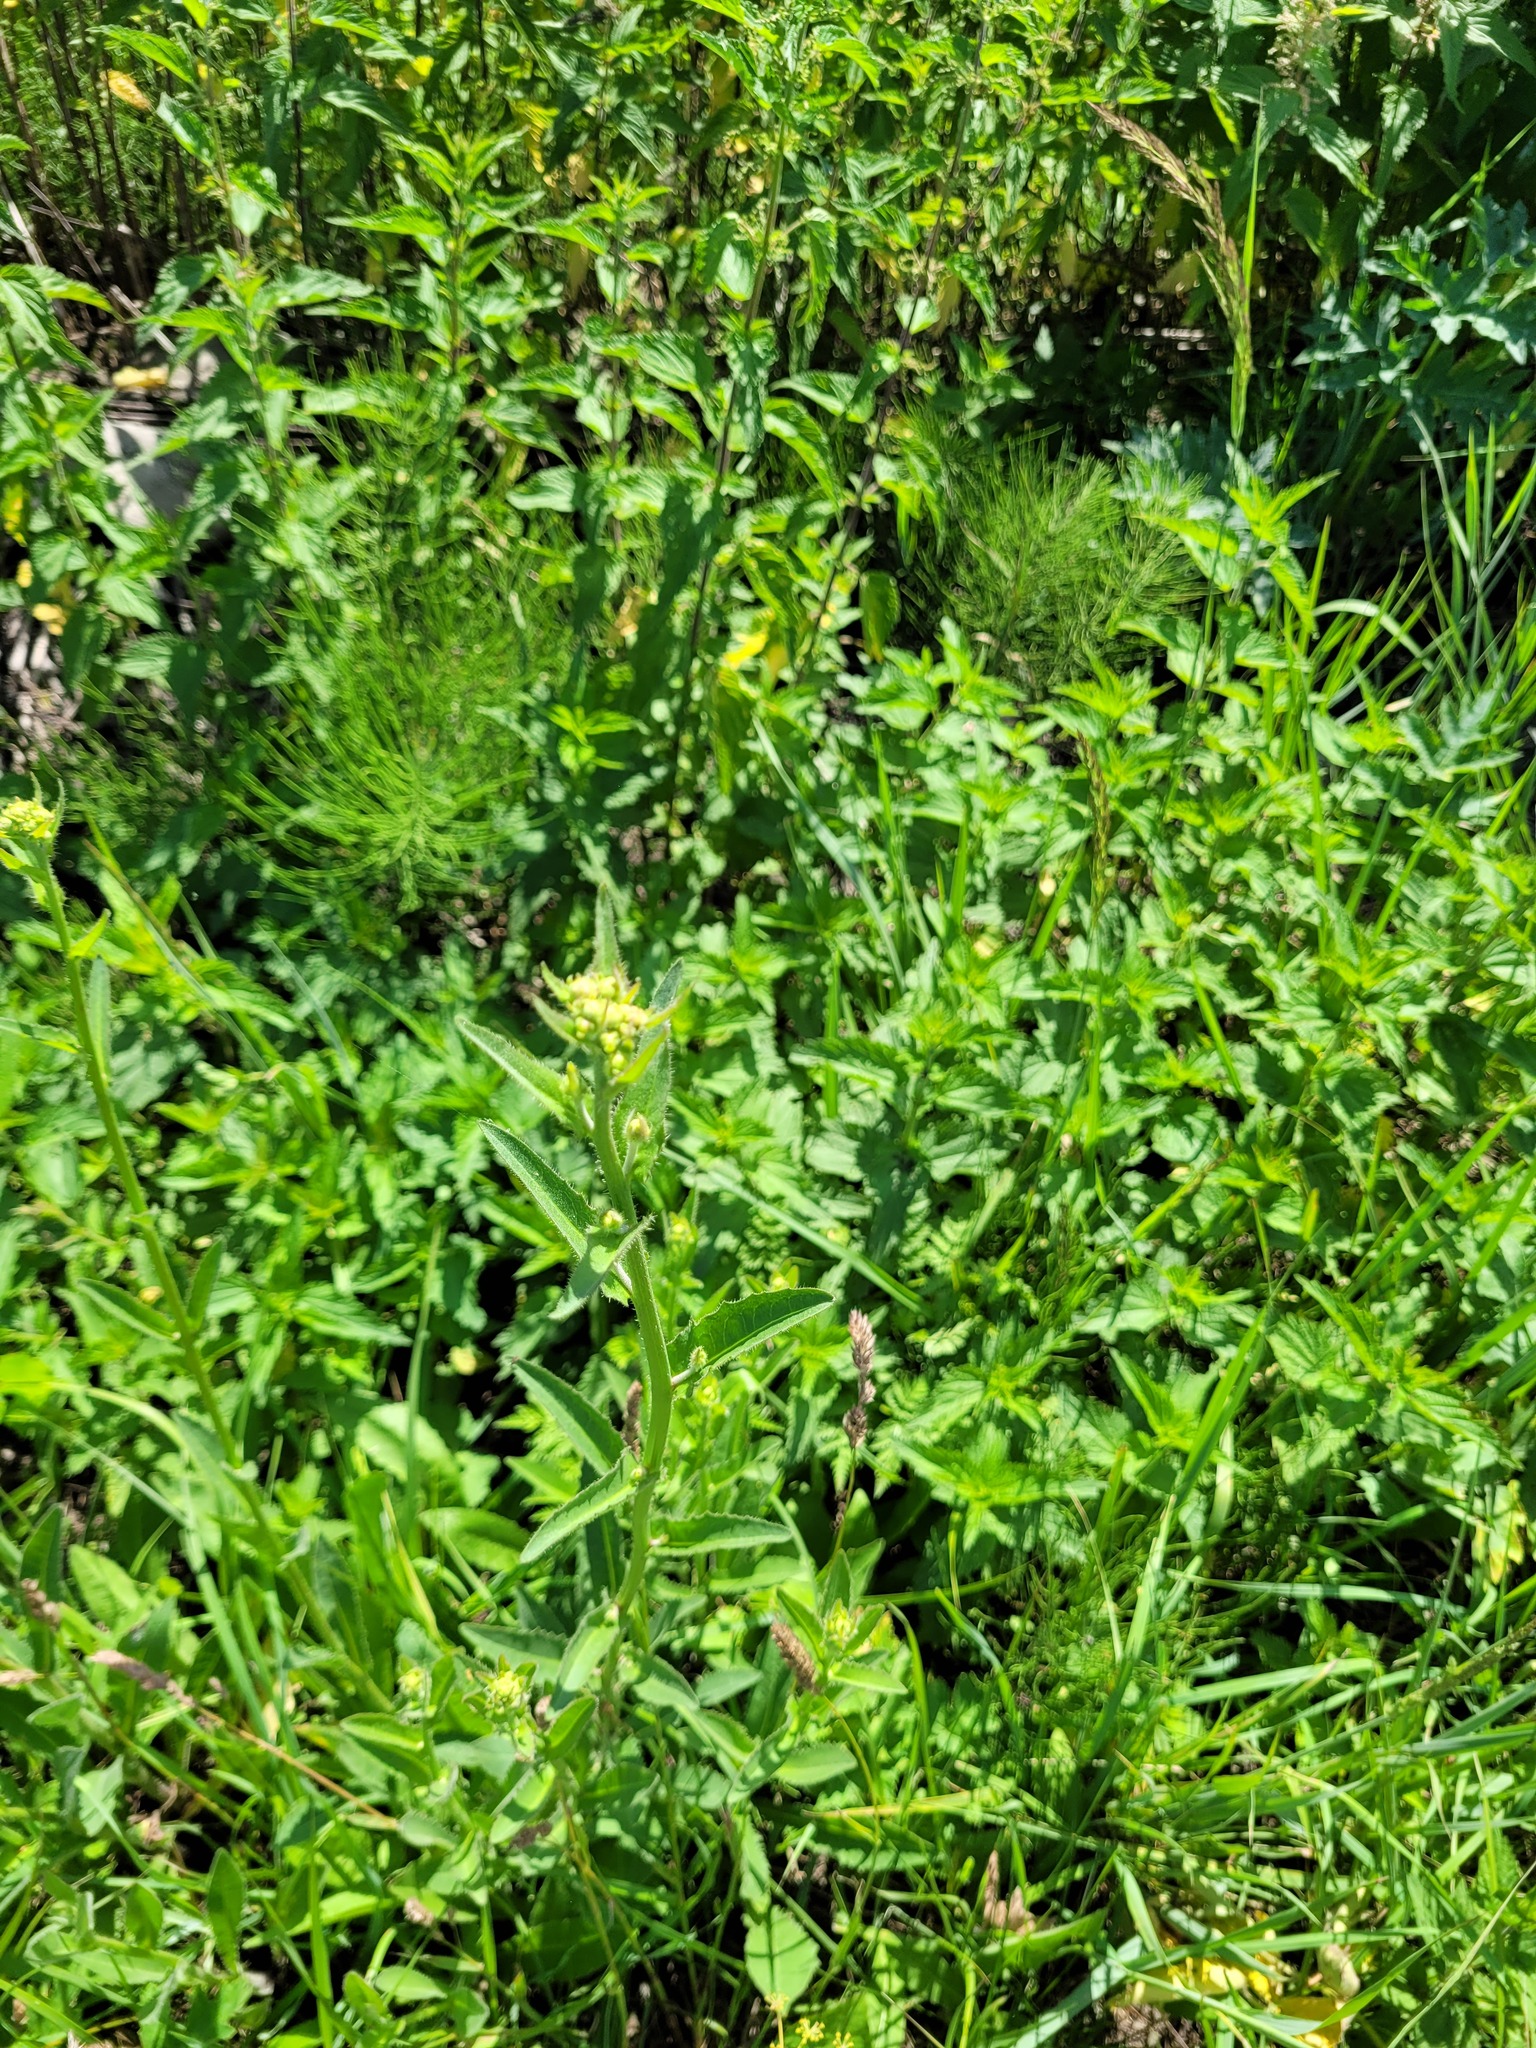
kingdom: Plantae
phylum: Tracheophyta
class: Magnoliopsida
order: Asterales
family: Asteraceae
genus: Picris
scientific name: Picris hieracioides
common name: Hawkweed oxtongue
